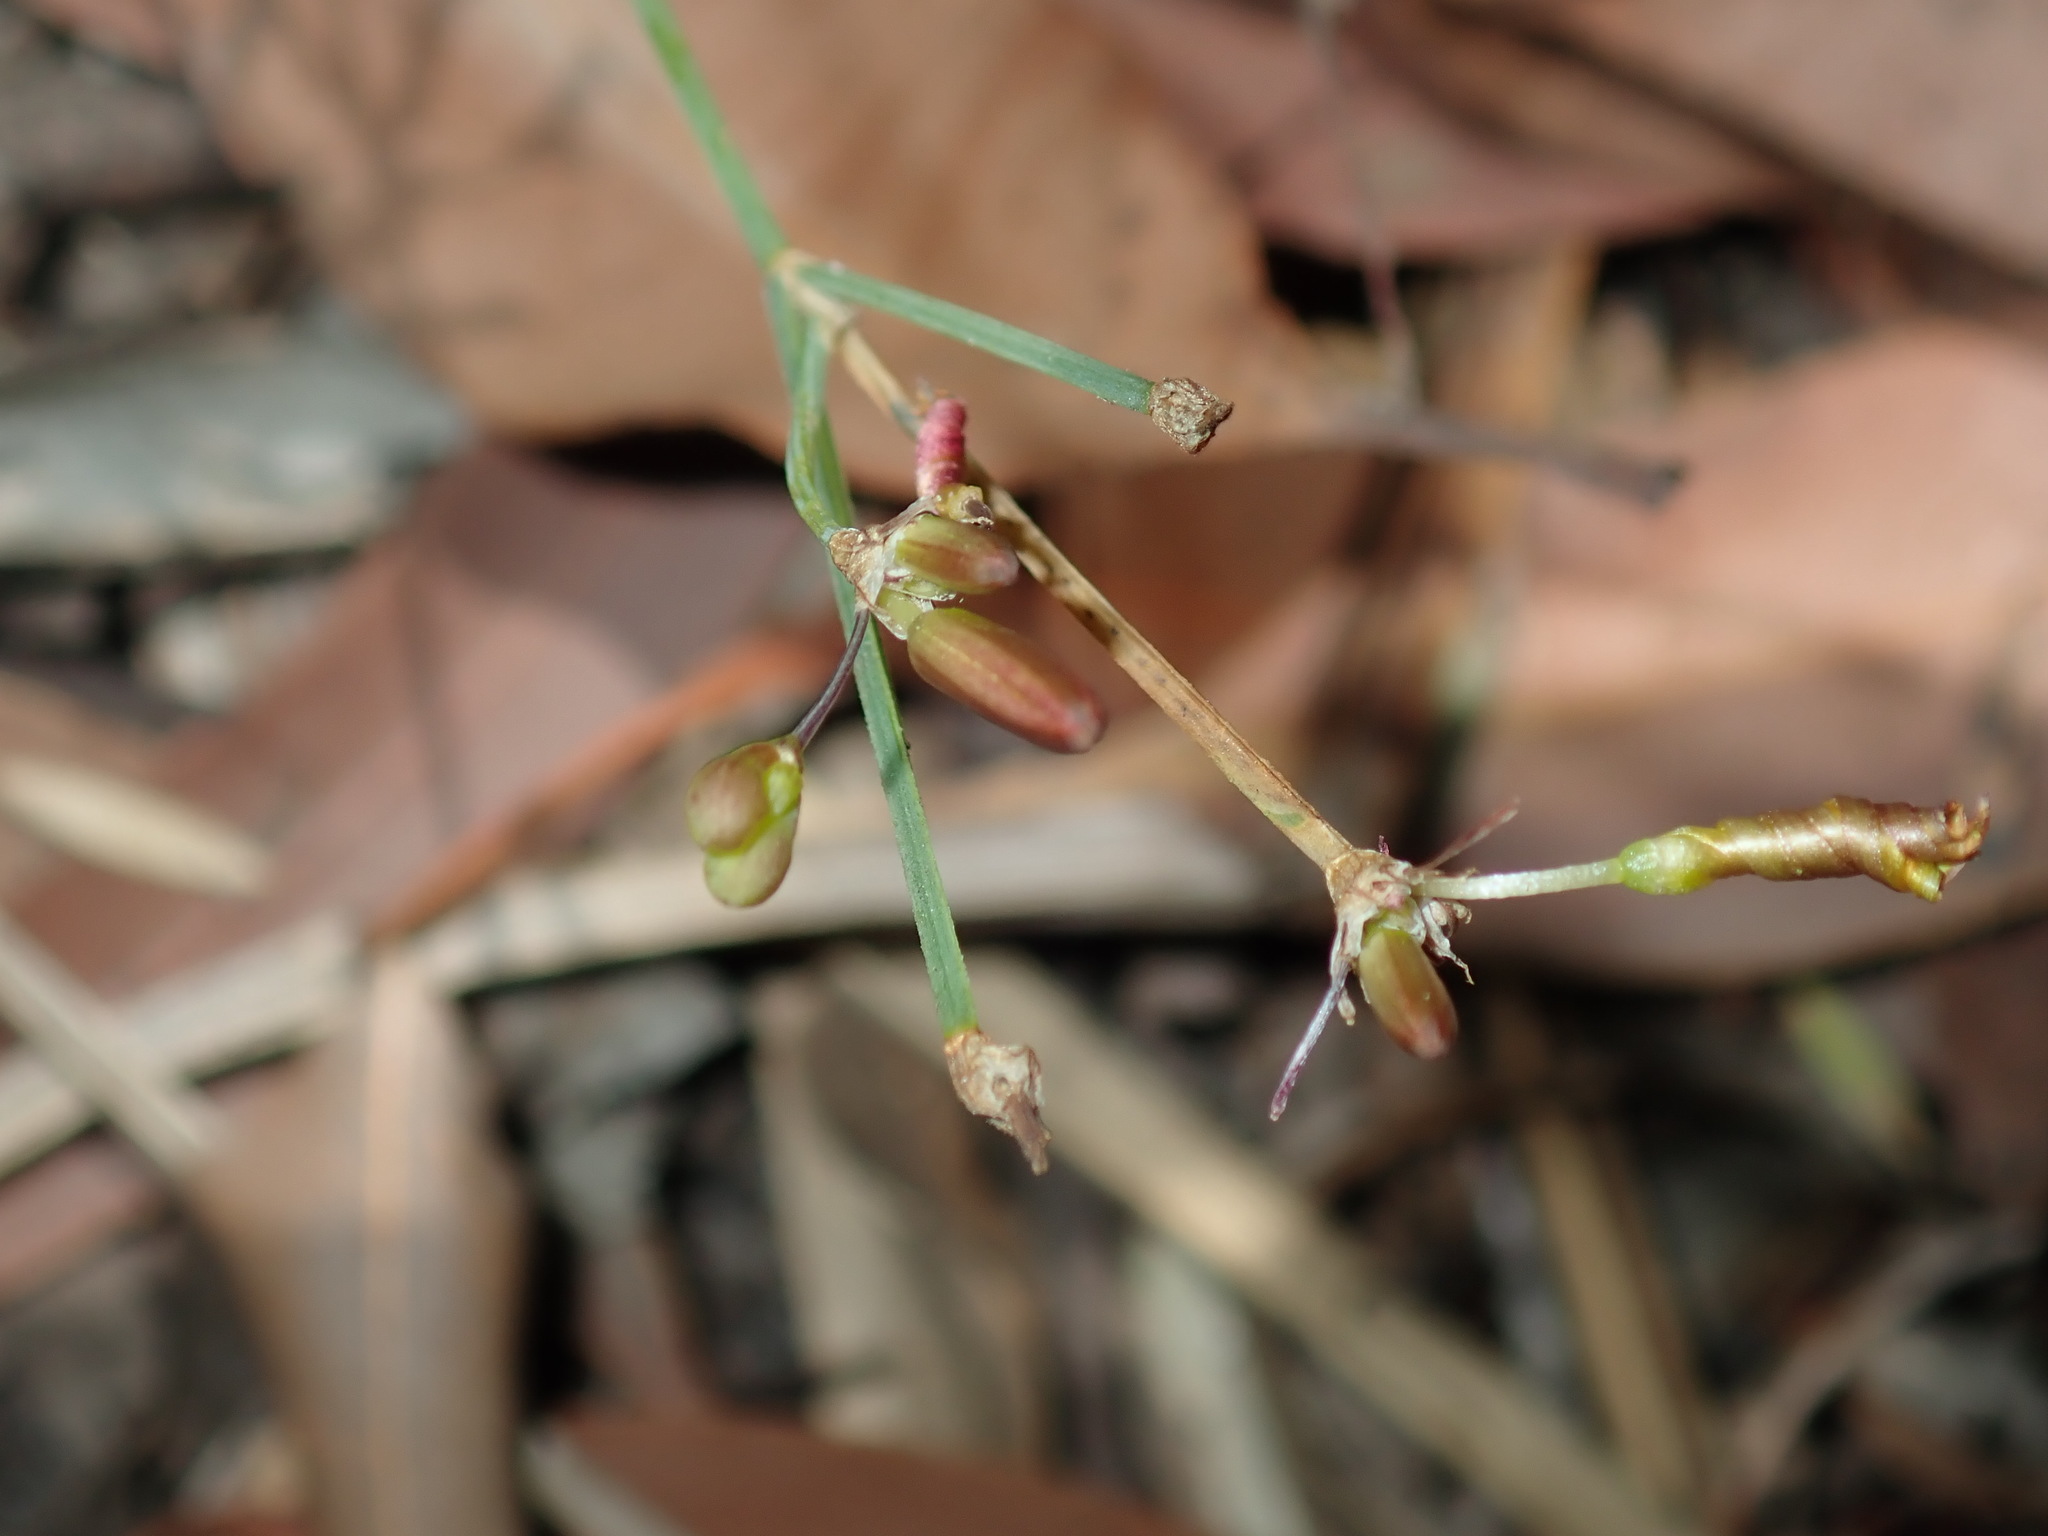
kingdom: Plantae
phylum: Tracheophyta
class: Liliopsida
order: Asparagales
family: Asphodelaceae
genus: Tricoryne
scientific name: Tricoryne elatior
